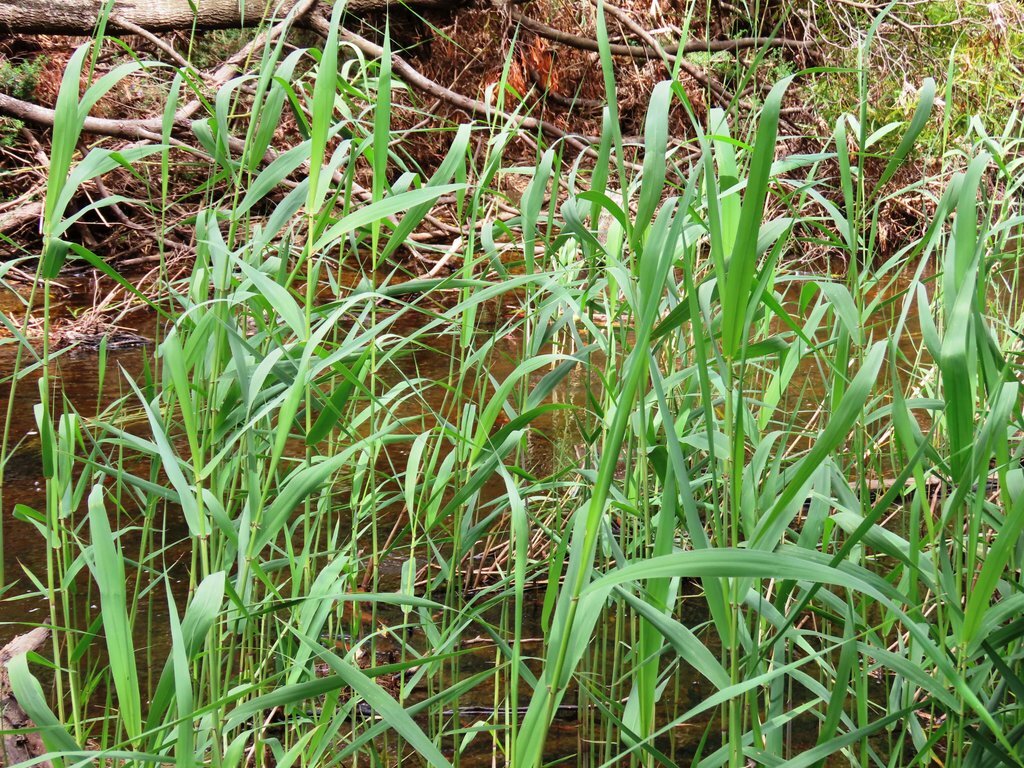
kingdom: Plantae
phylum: Tracheophyta
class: Liliopsida
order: Poales
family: Poaceae
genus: Phragmites
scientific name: Phragmites australis
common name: Common reed
